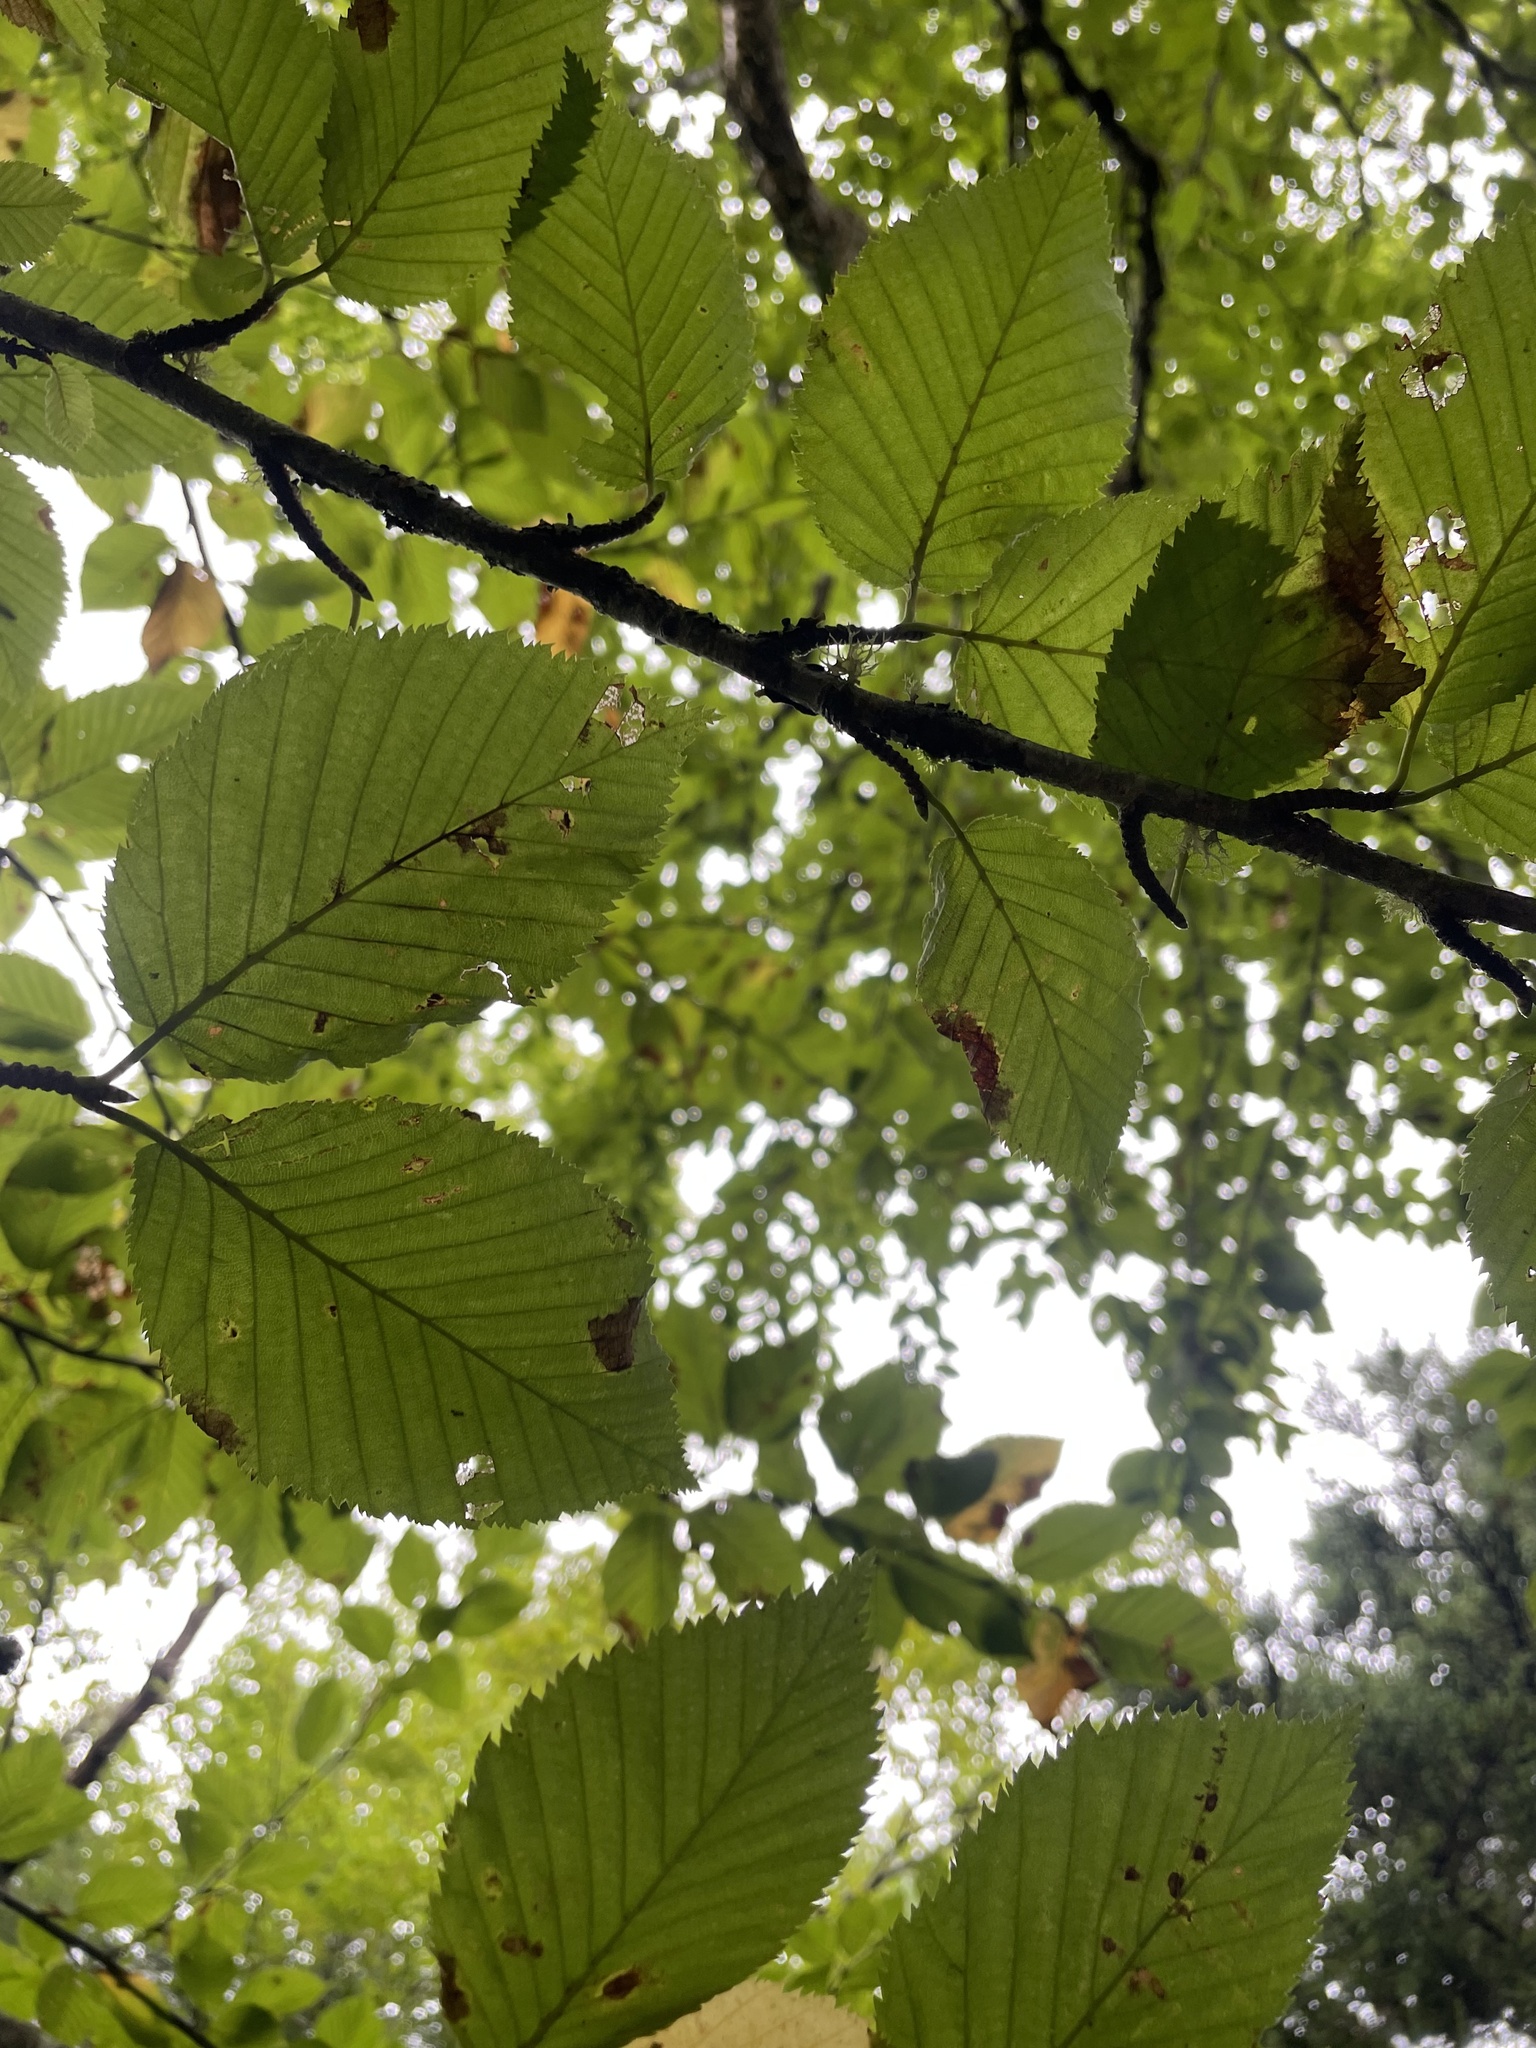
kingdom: Plantae
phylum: Tracheophyta
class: Magnoliopsida
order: Fagales
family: Betulaceae
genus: Betula
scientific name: Betula alleghaniensis
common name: Yellow birch
